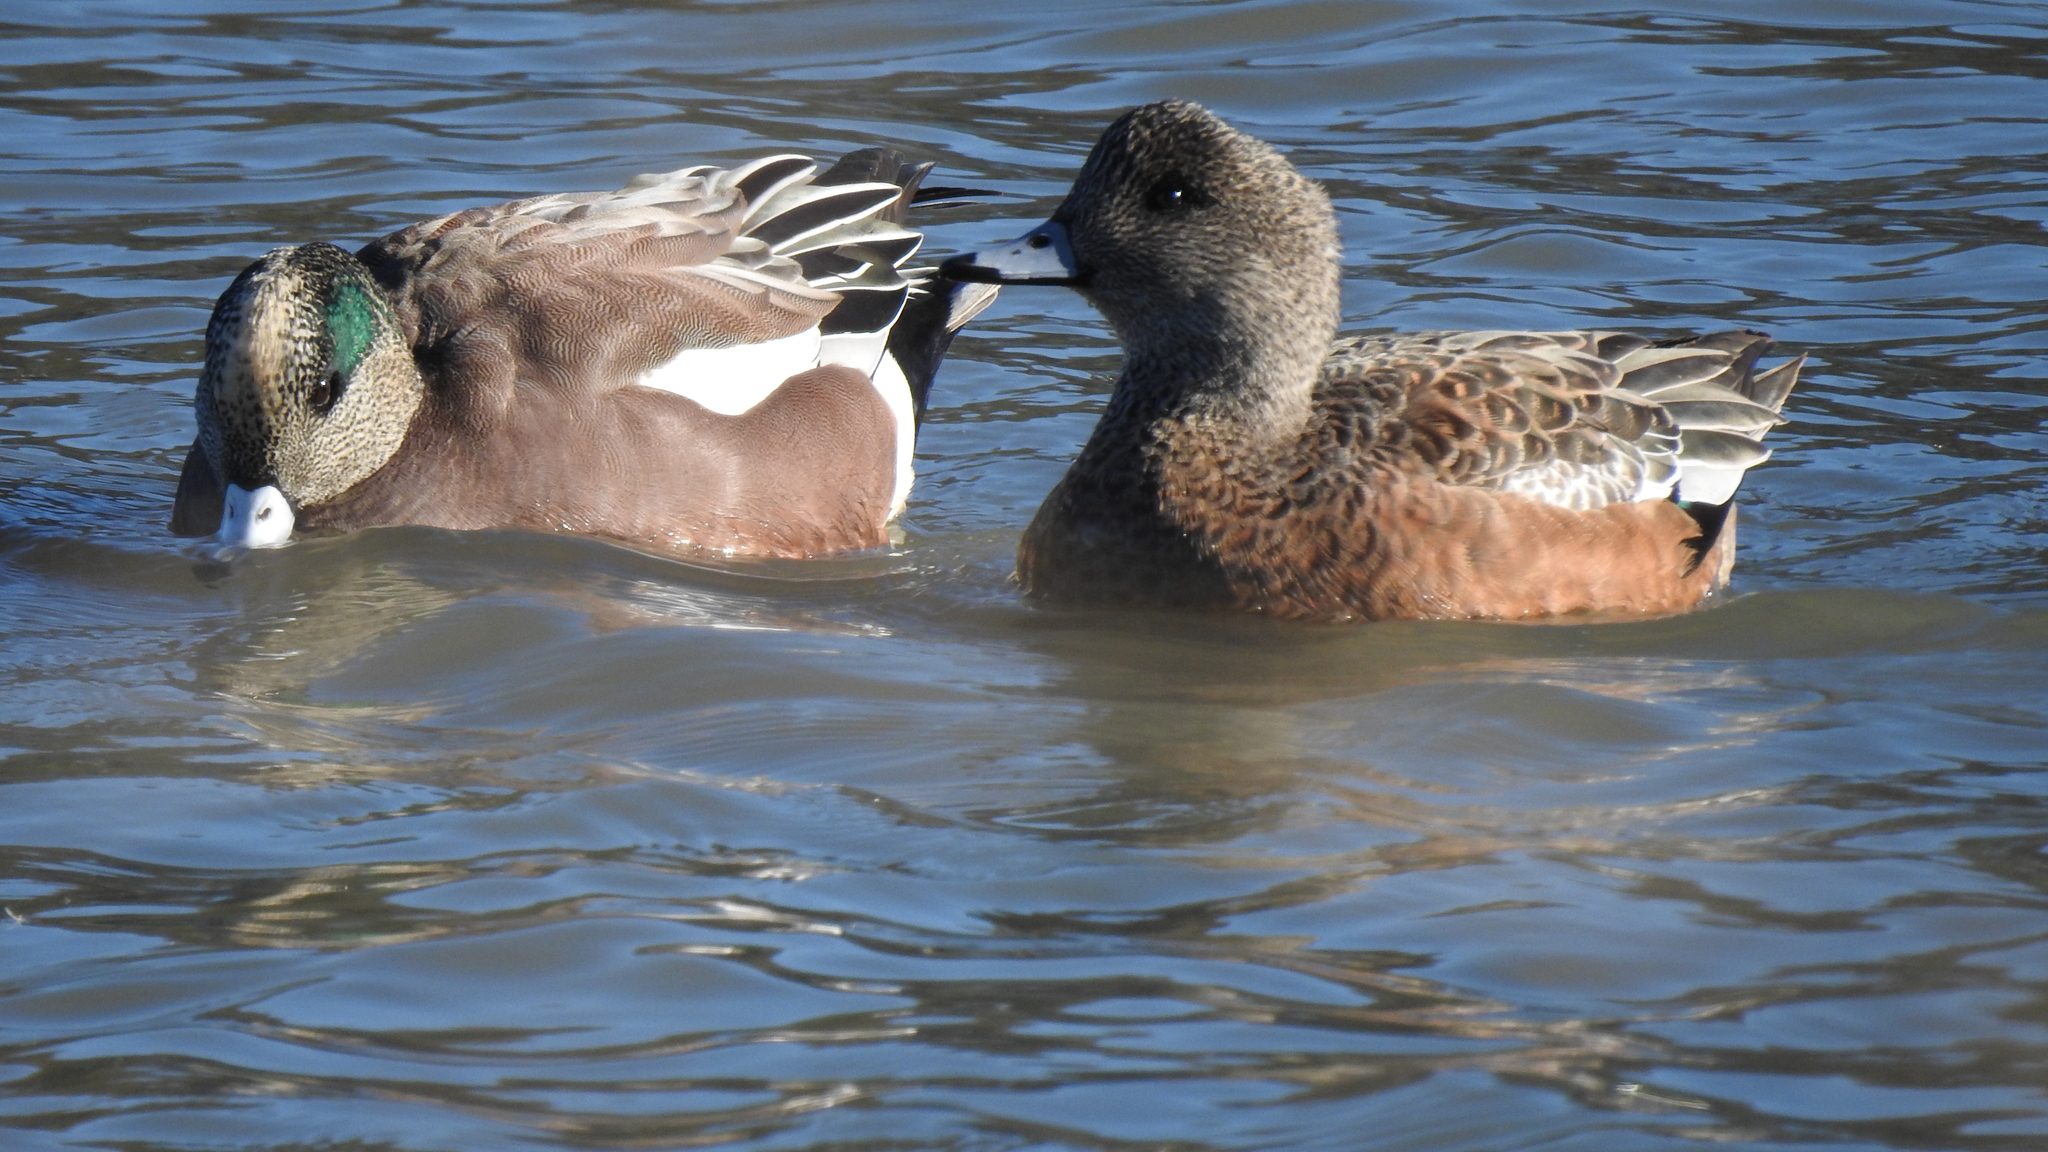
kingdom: Animalia
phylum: Chordata
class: Aves
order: Anseriformes
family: Anatidae
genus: Mareca
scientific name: Mareca americana
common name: American wigeon
